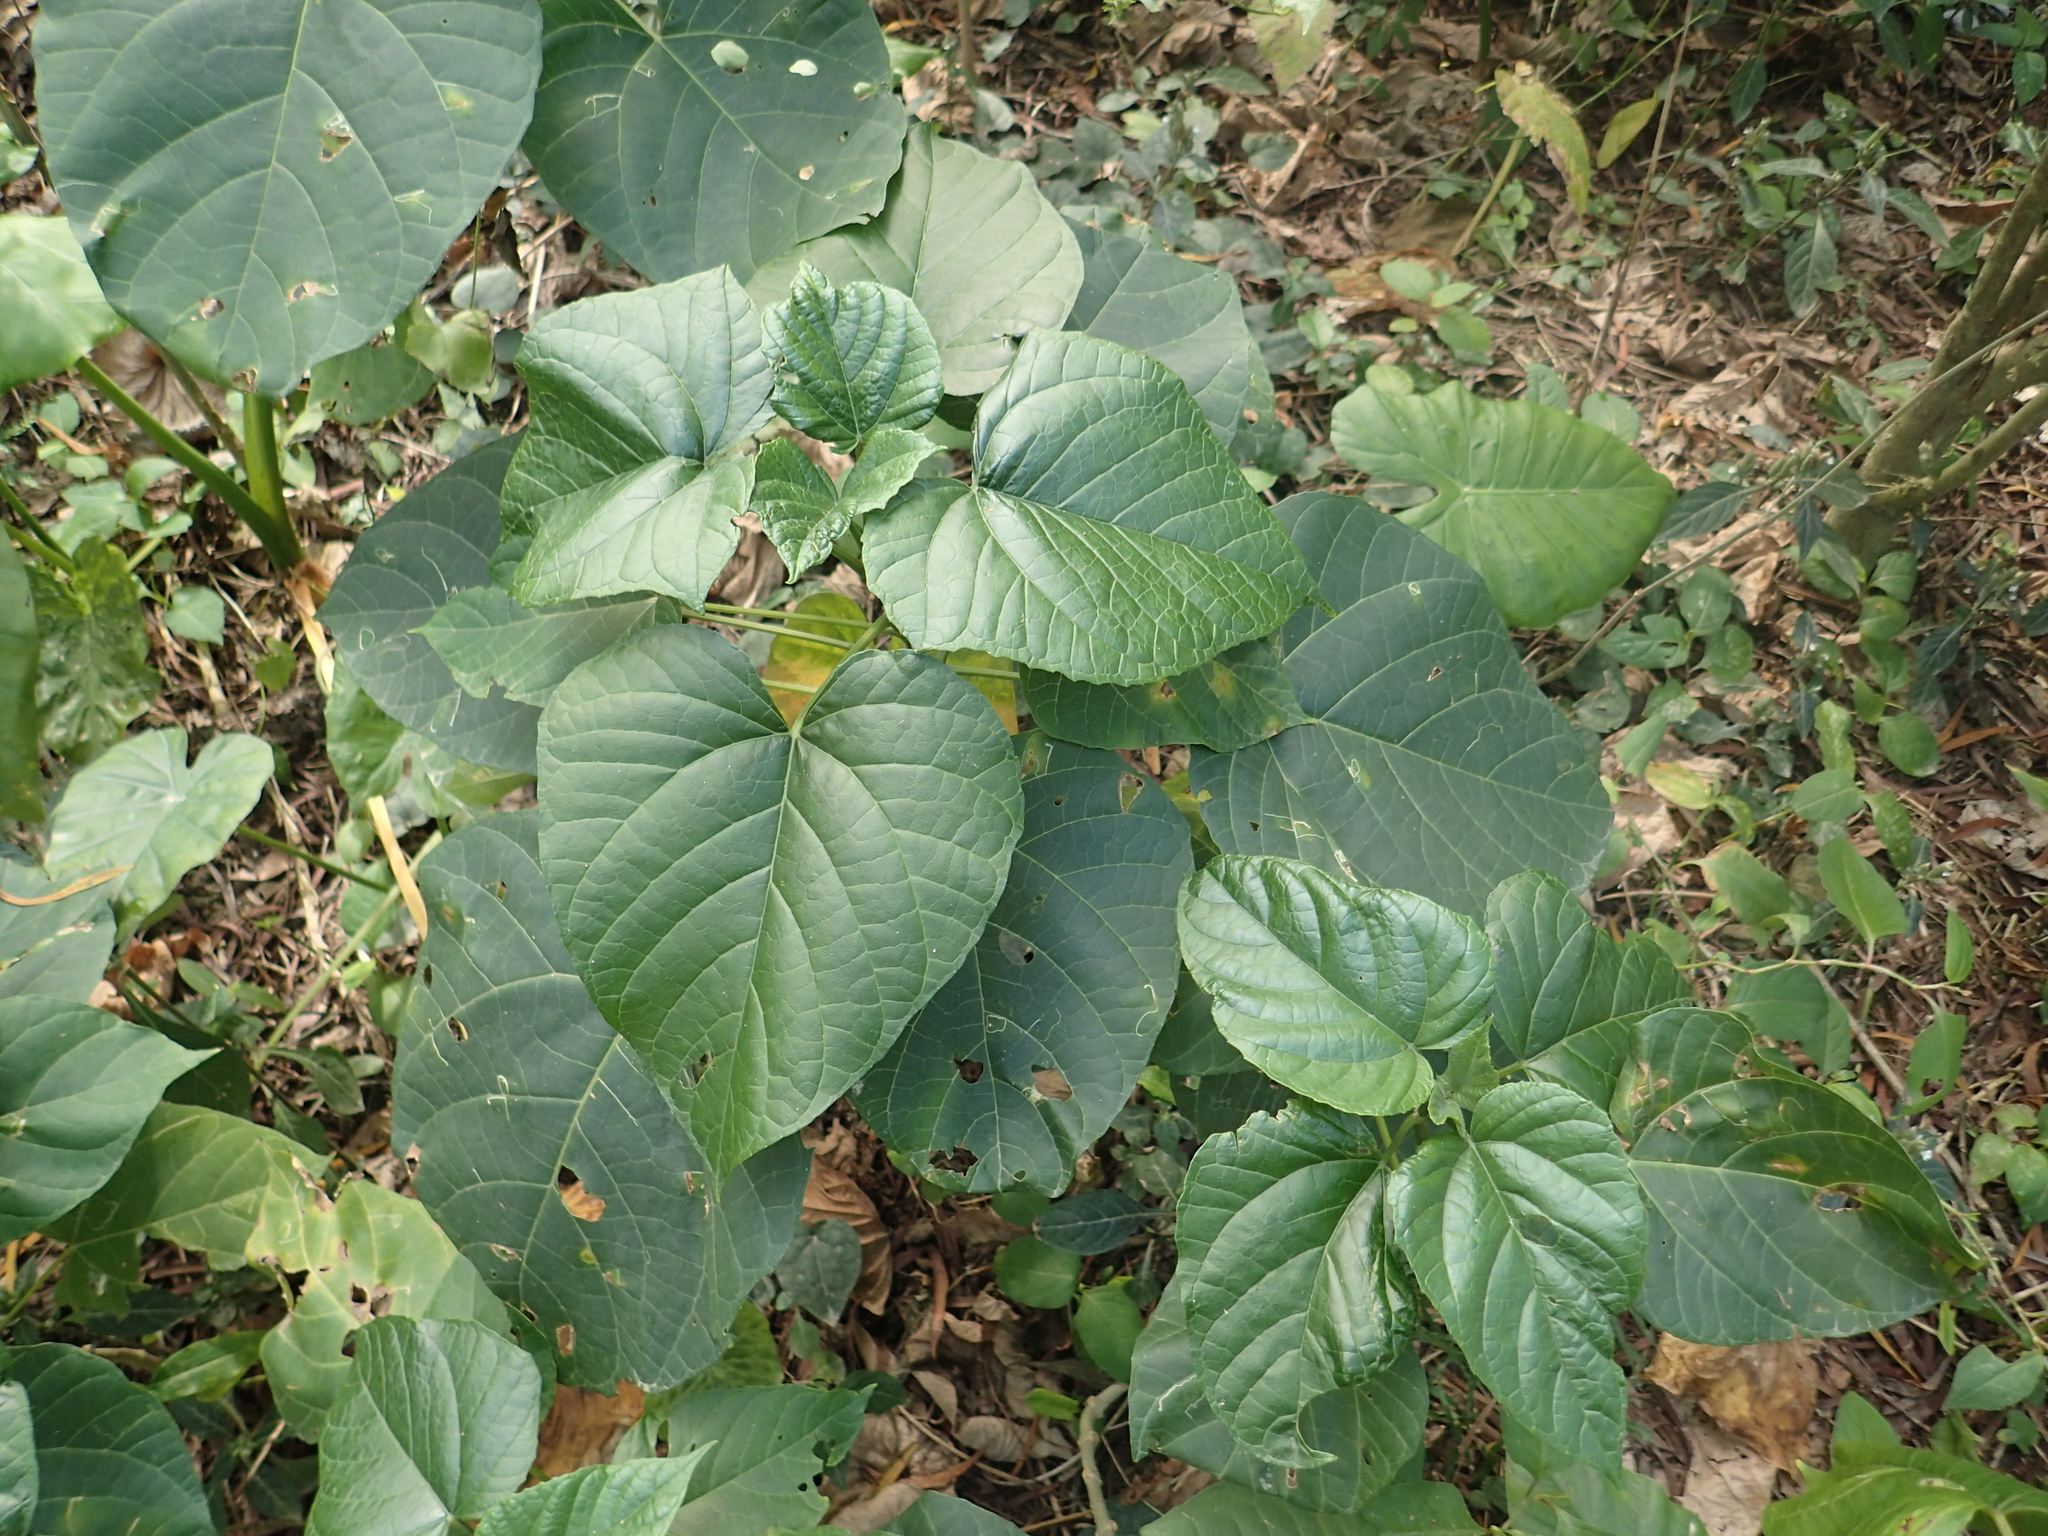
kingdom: Plantae
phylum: Tracheophyta
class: Magnoliopsida
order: Lamiales
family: Lamiaceae
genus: Clerodendrum
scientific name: Clerodendrum japonicum
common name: Japanese glorybower
